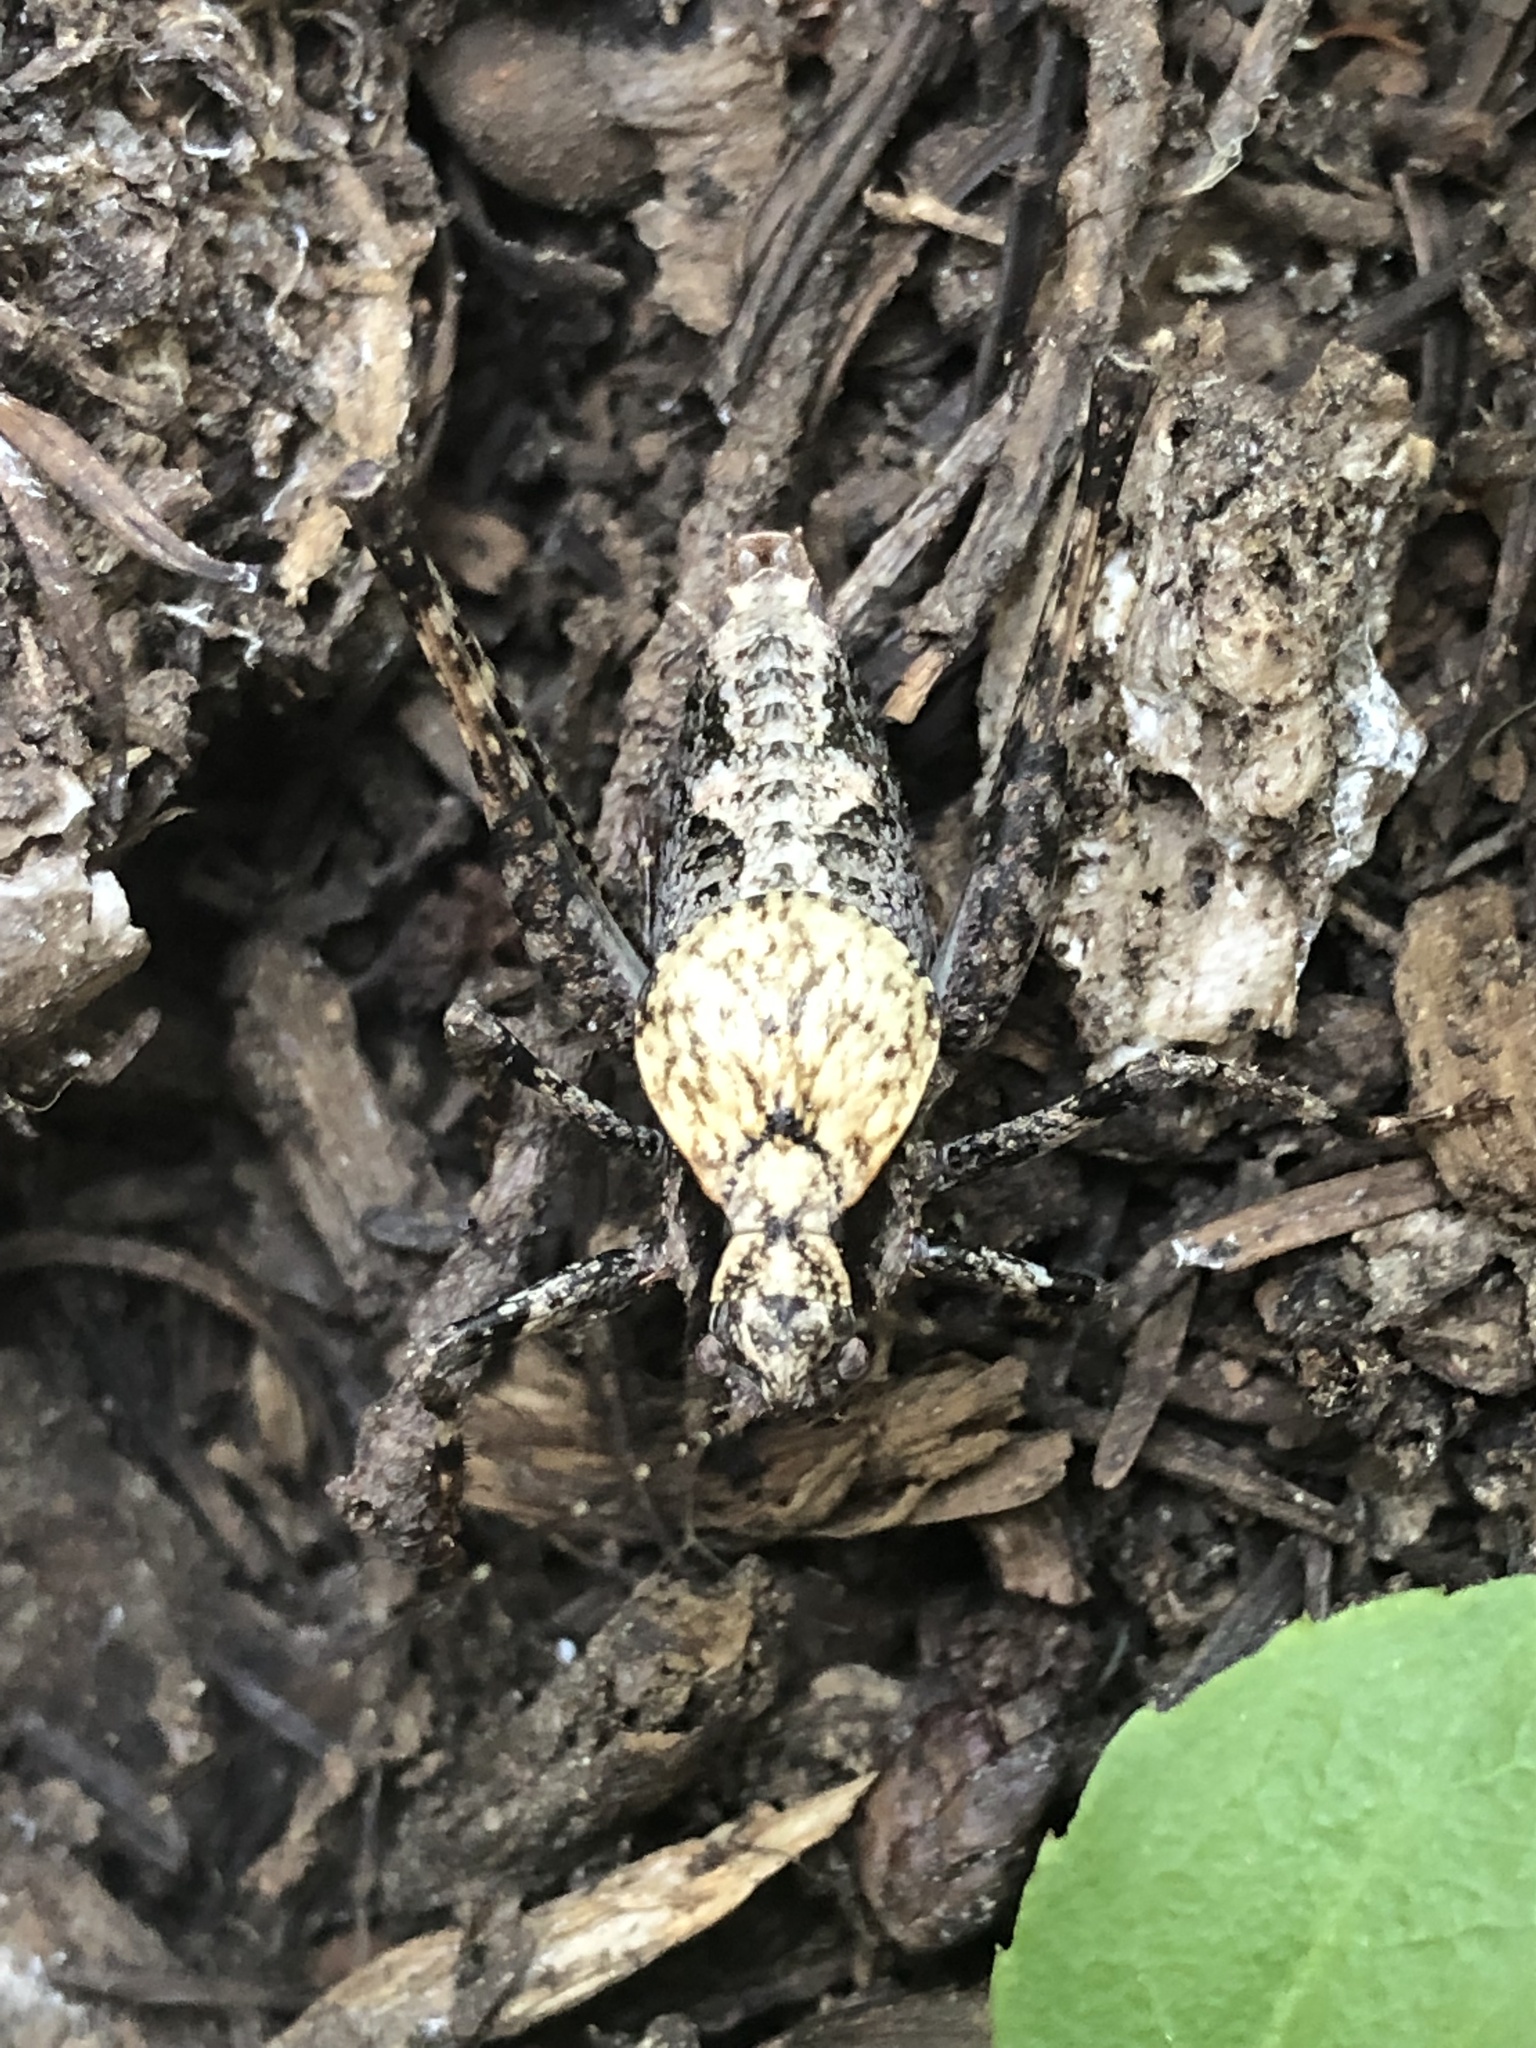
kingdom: Animalia
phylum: Arthropoda
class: Insecta
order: Orthoptera
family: Tettigoniidae
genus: Neduba
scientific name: Neduba cascadia
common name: Cascade shieldback
